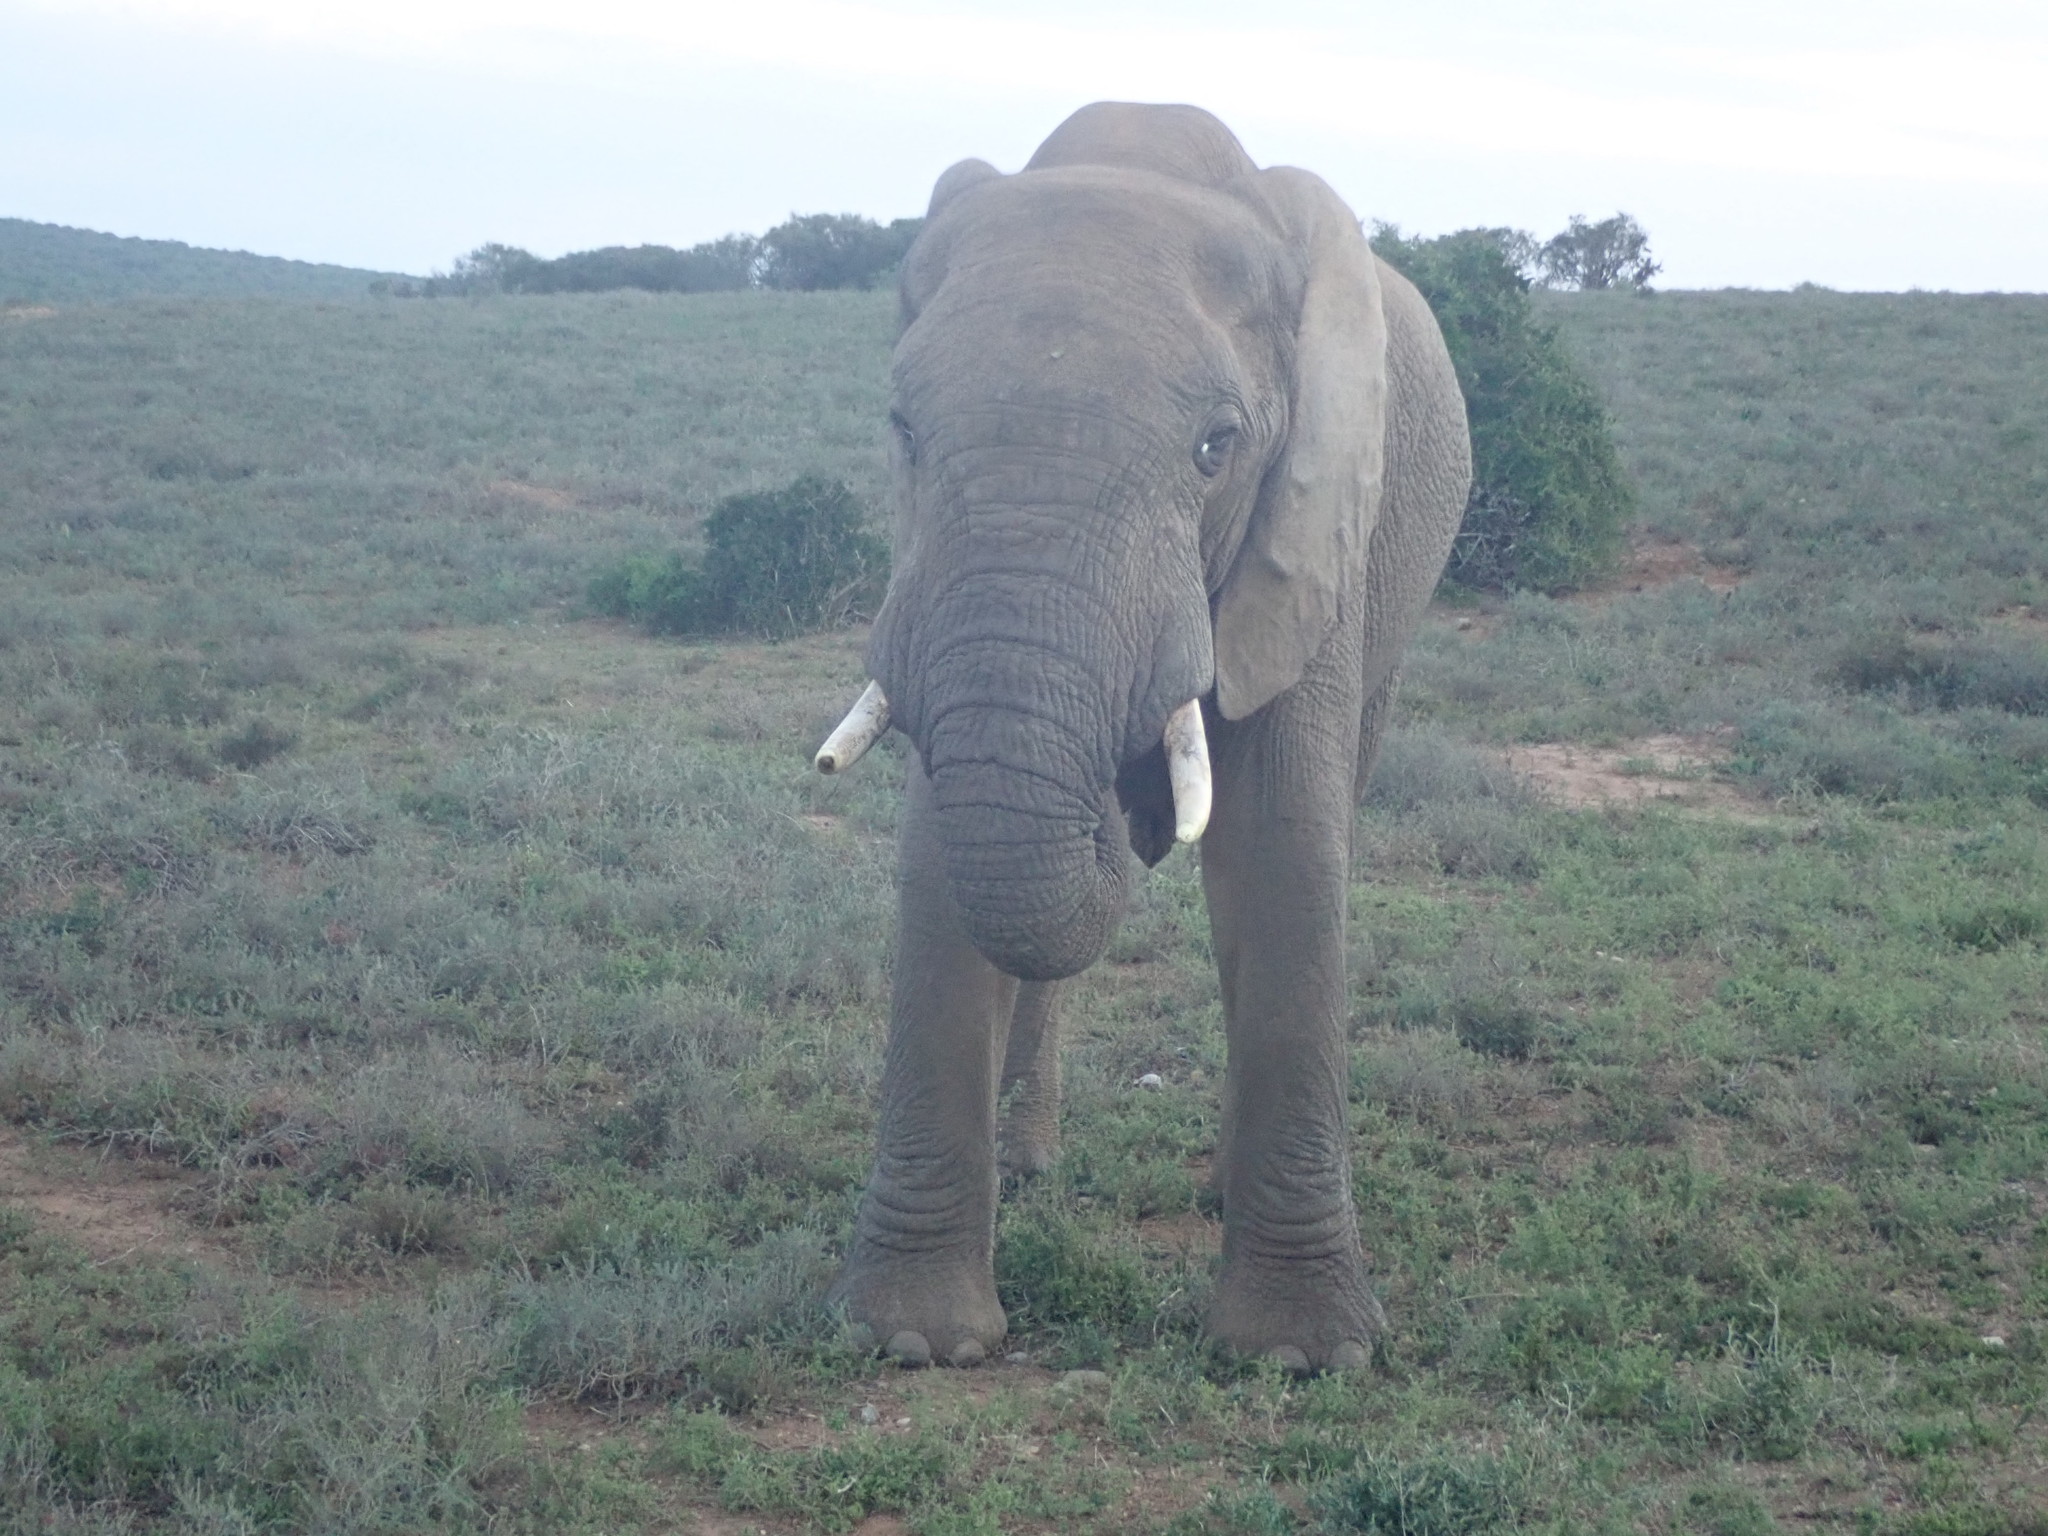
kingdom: Animalia
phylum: Chordata
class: Mammalia
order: Proboscidea
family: Elephantidae
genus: Loxodonta
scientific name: Loxodonta africana
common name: African elephant
